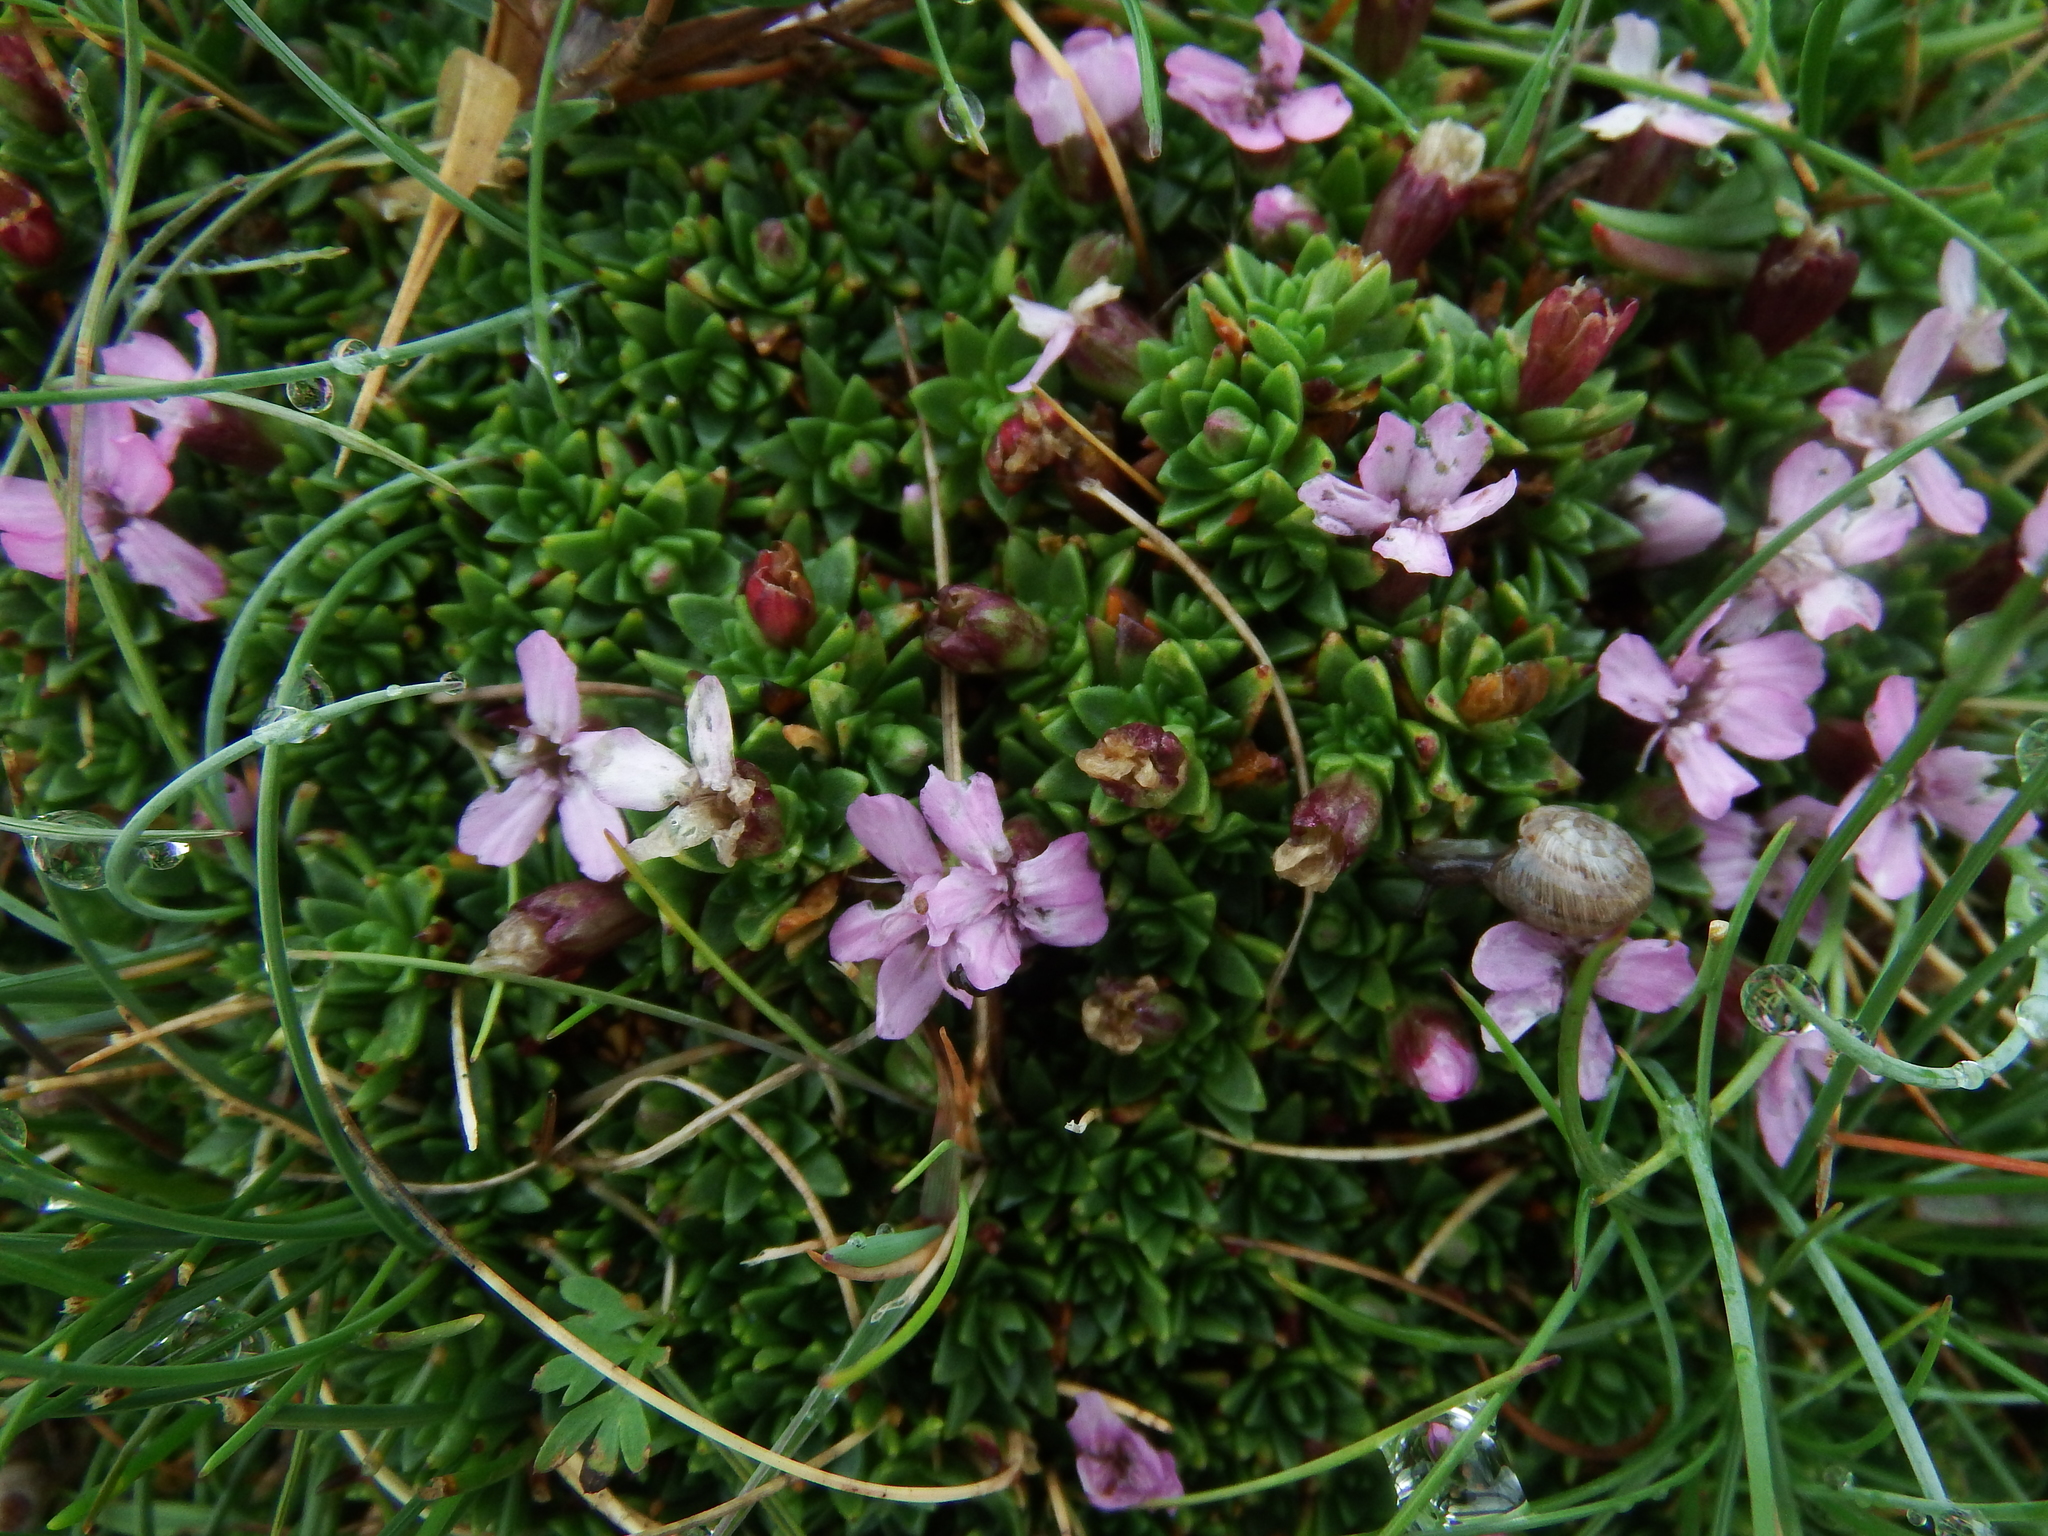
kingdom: Plantae
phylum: Tracheophyta
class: Magnoliopsida
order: Caryophyllales
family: Caryophyllaceae
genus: Silene
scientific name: Silene acaulis
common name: Moss campion
